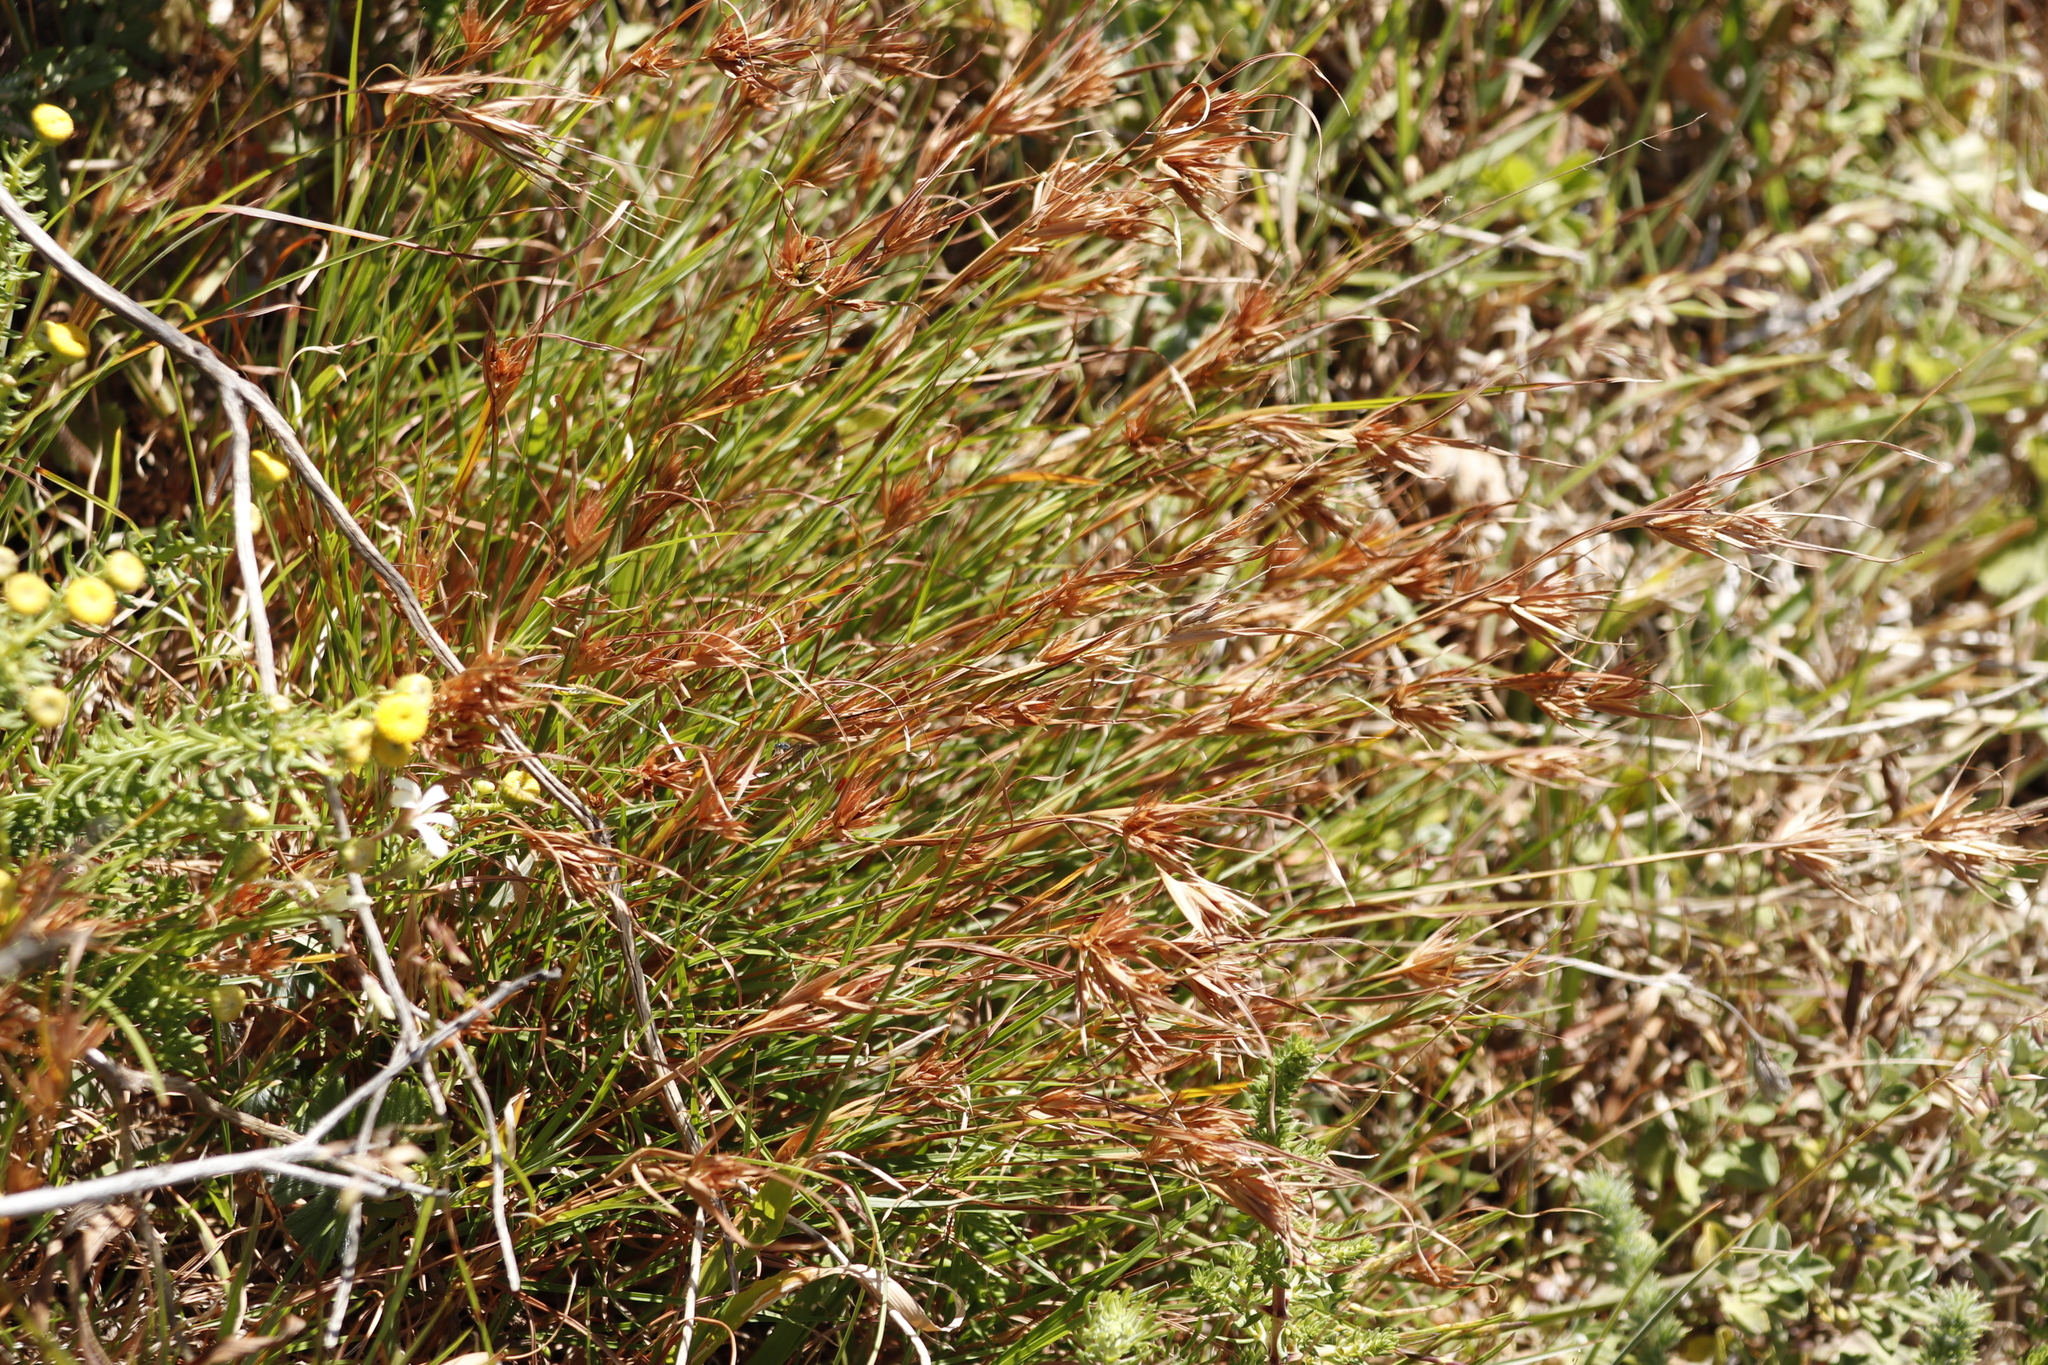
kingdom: Plantae
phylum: Tracheophyta
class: Liliopsida
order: Poales
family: Poaceae
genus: Themeda
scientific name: Themeda triandra
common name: Kangaroo grass
